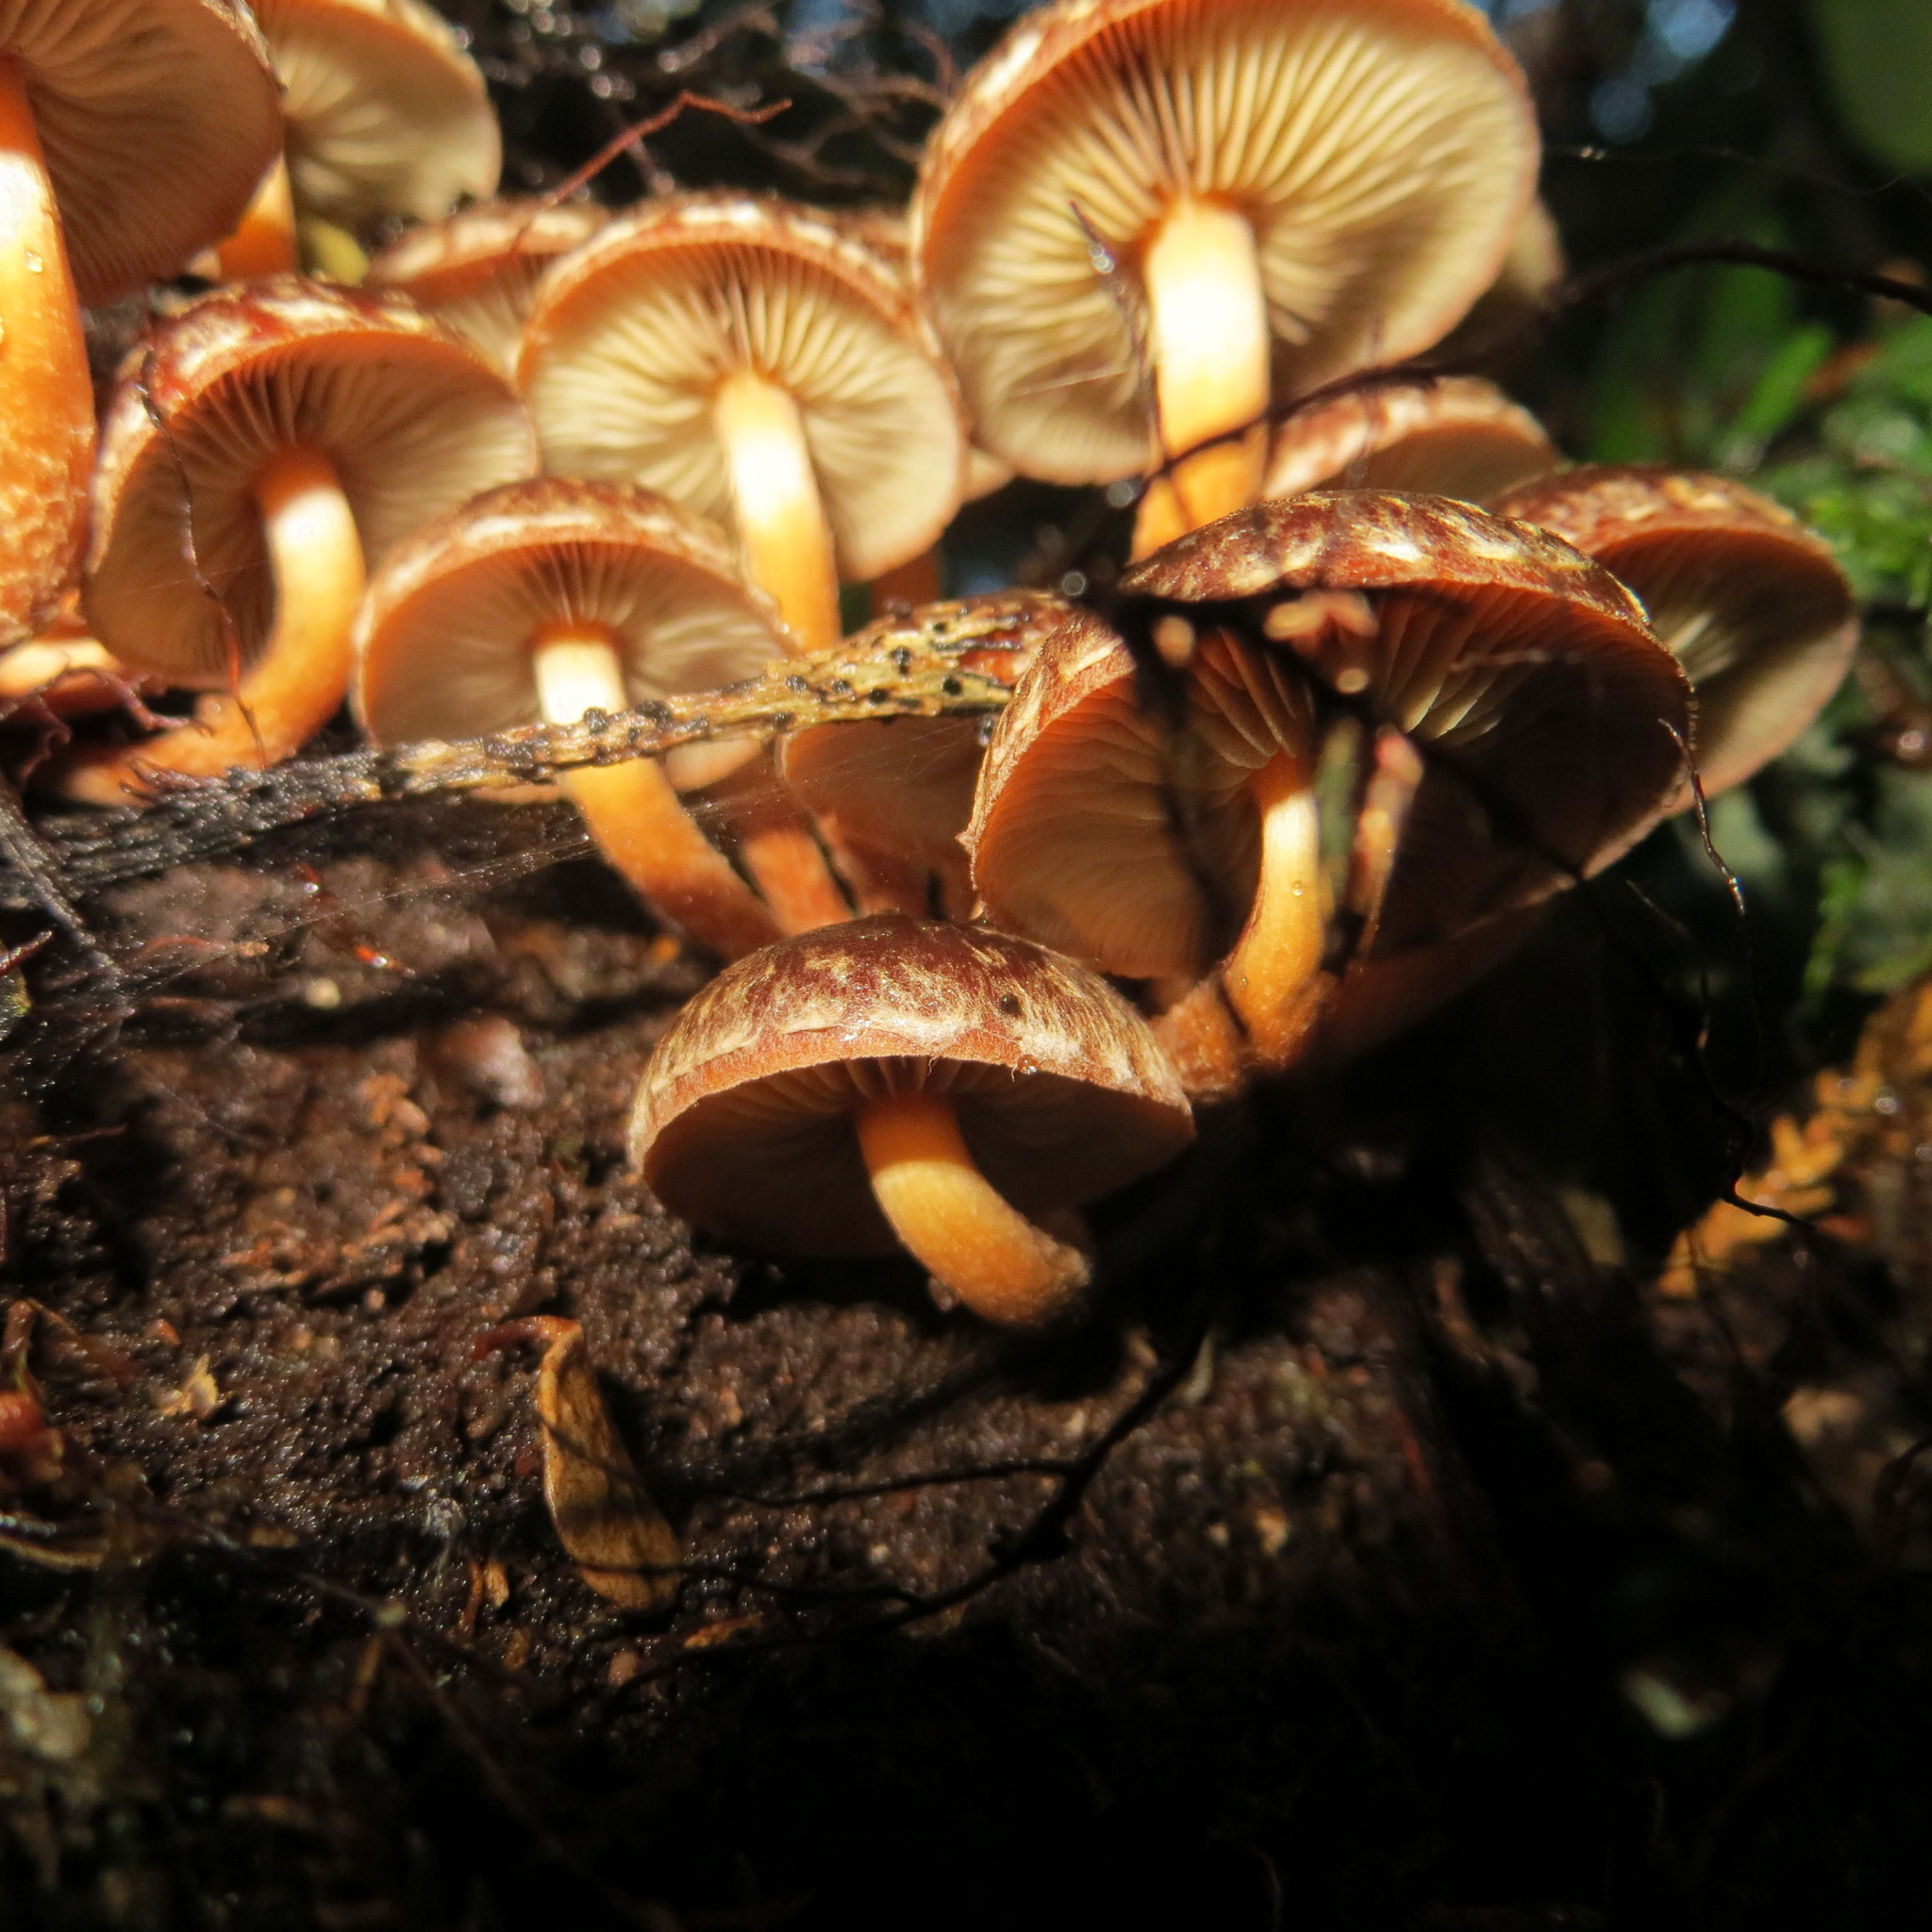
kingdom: Fungi
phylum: Basidiomycota
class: Agaricomycetes
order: Agaricales
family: Strophariaceae
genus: Hypholoma
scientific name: Hypholoma brunneum
